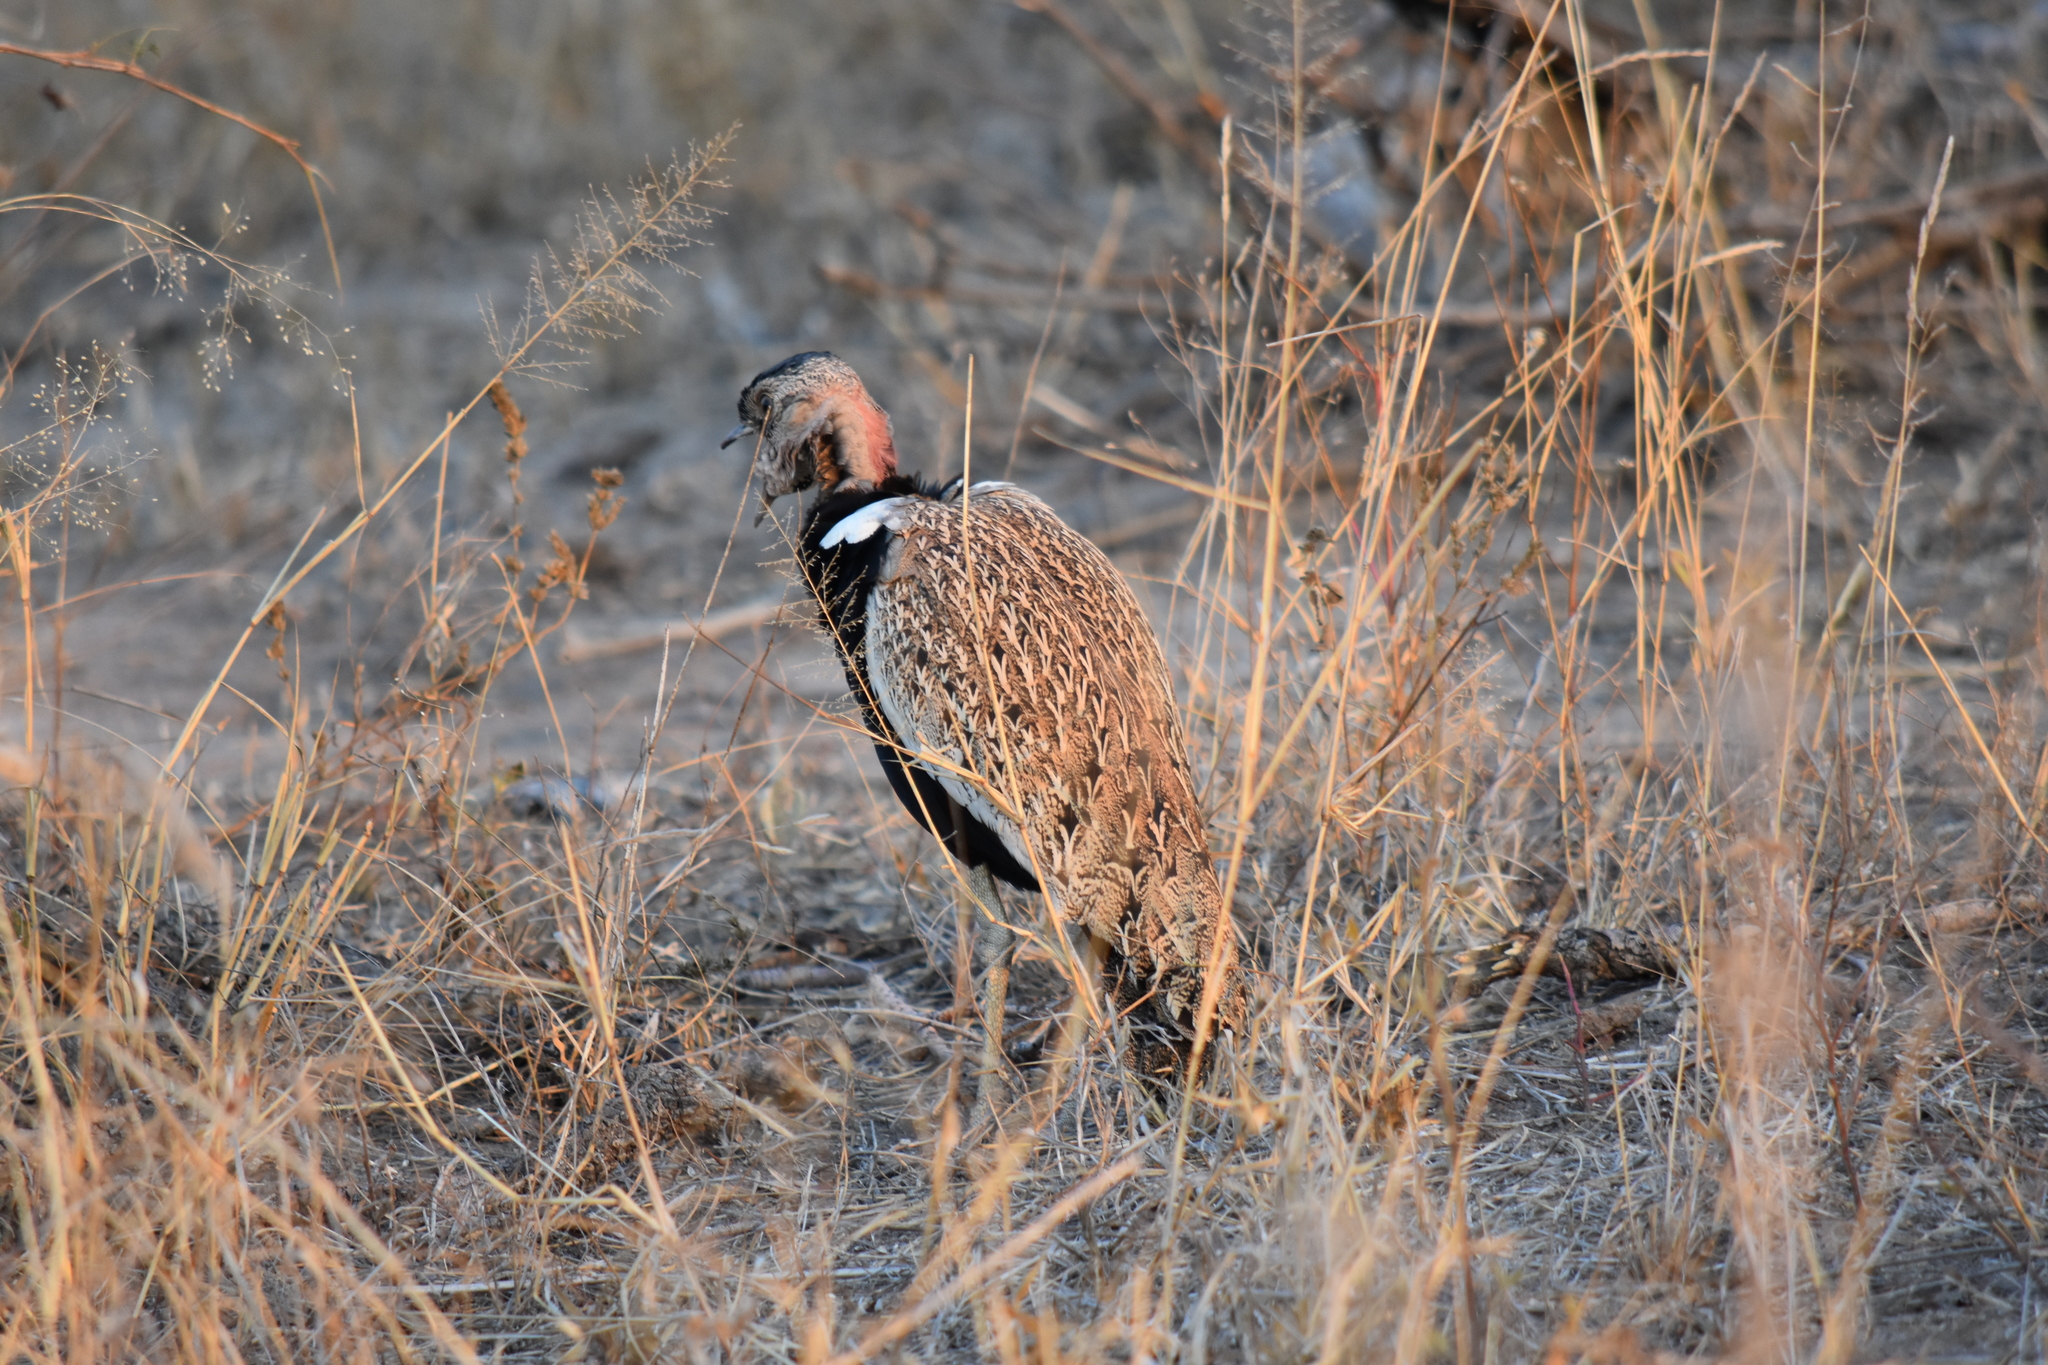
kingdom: Animalia
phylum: Chordata
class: Aves
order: Otidiformes
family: Otididae
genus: Lophotis
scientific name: Lophotis ruficrista
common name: Red-crested korhaan
